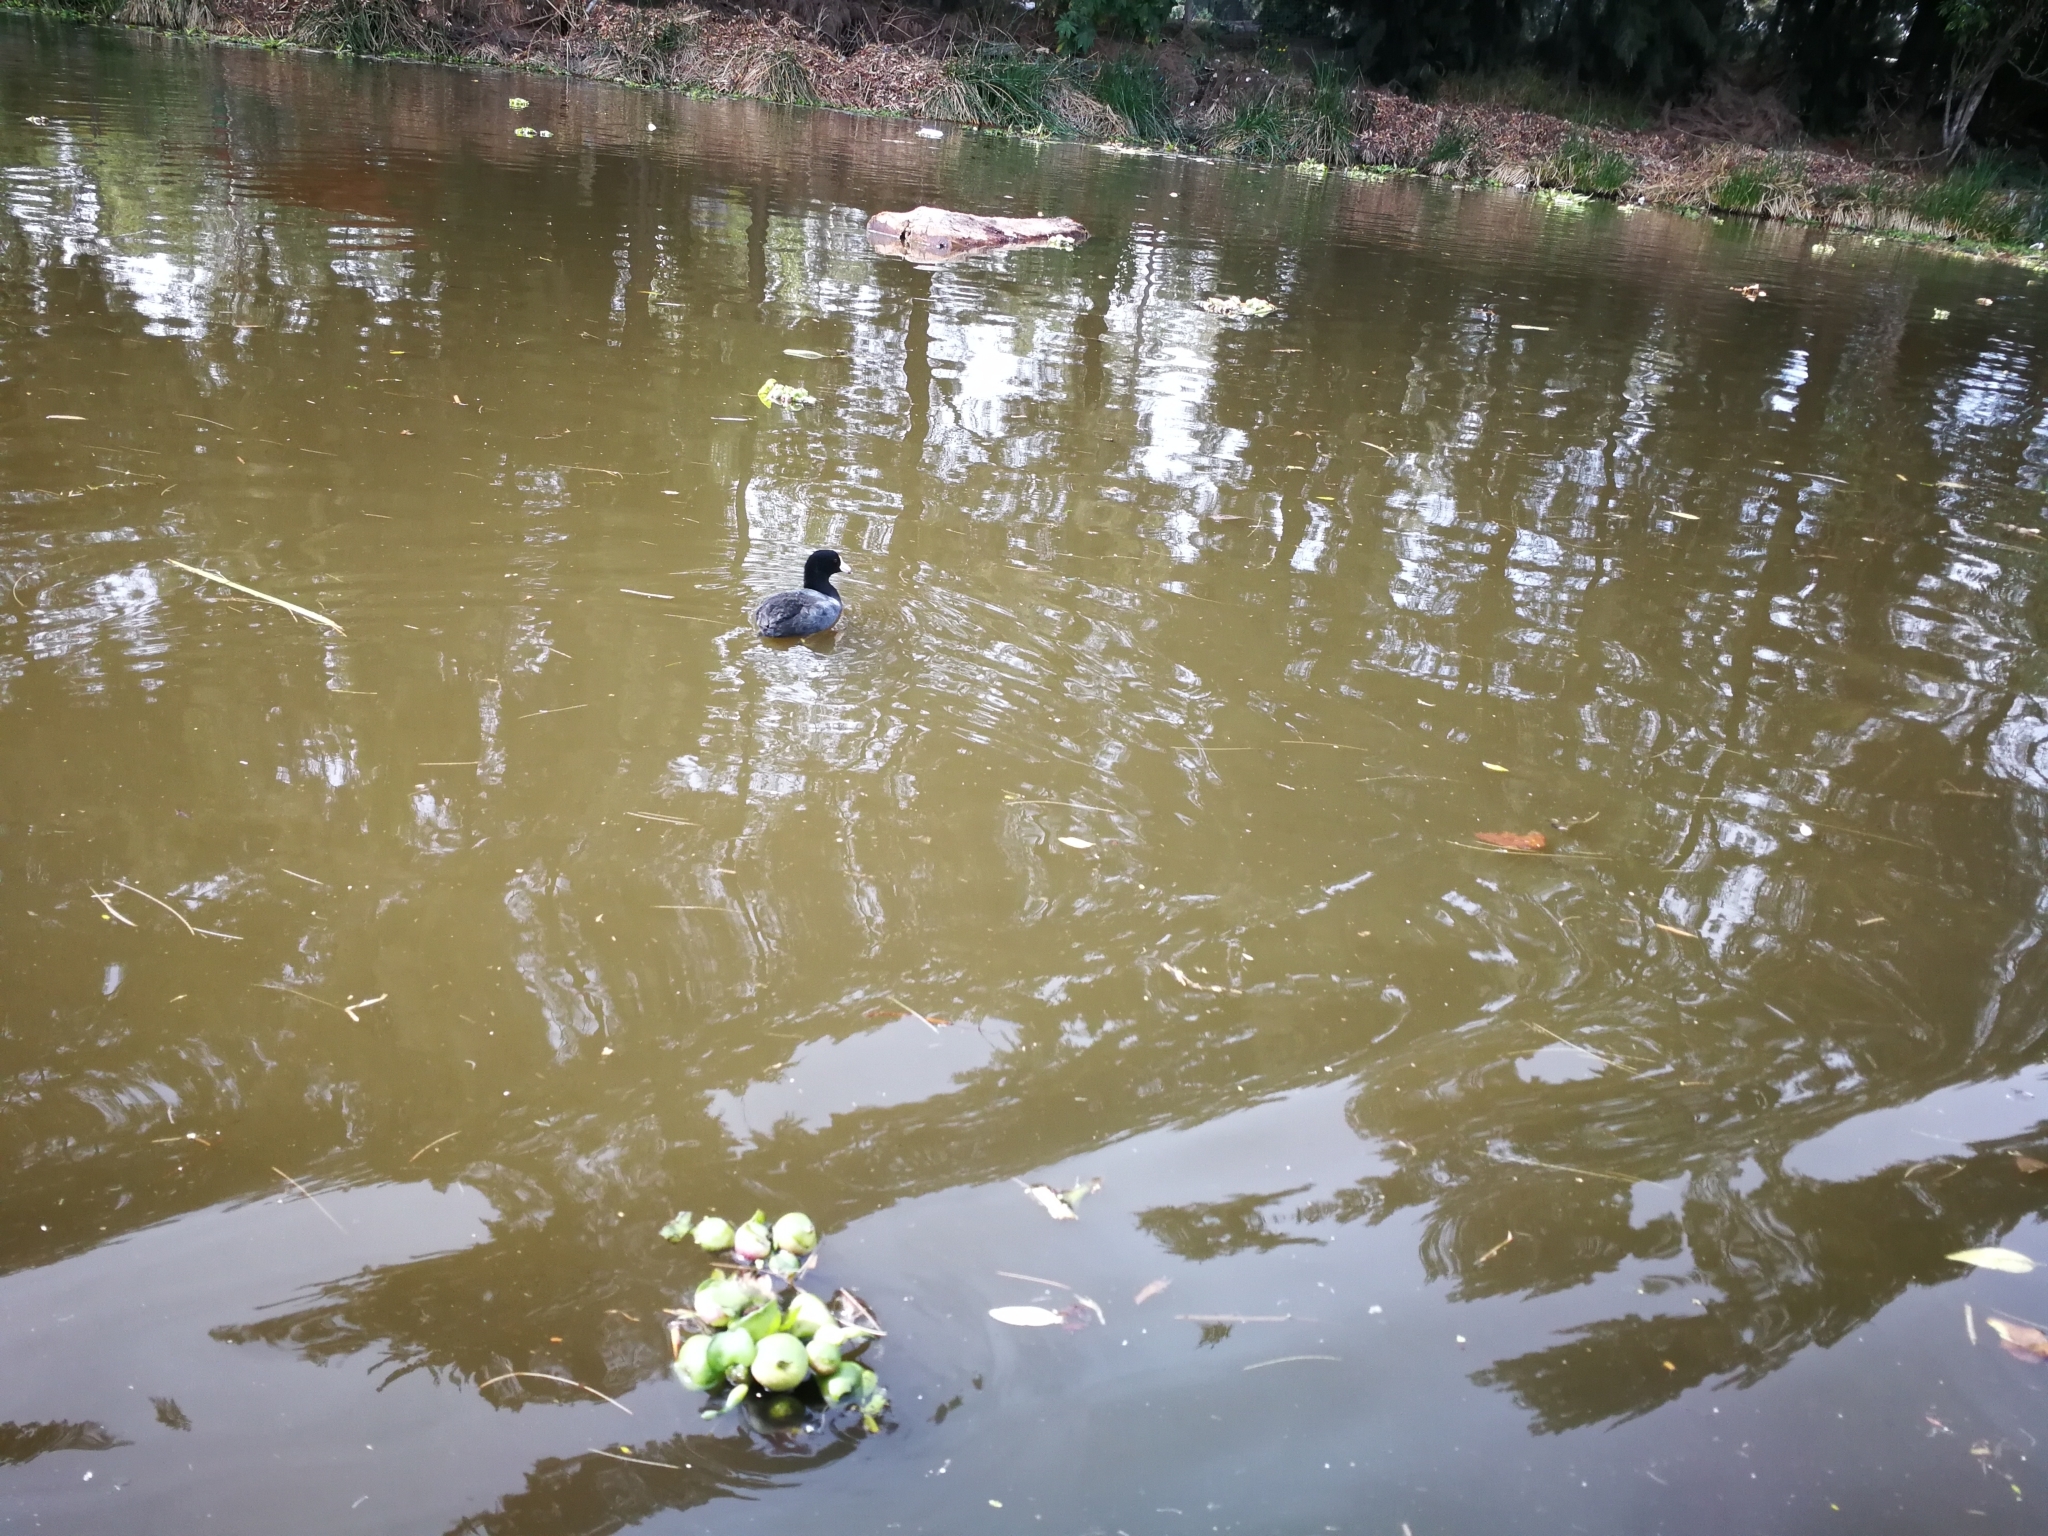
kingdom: Animalia
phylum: Chordata
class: Aves
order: Gruiformes
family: Rallidae
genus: Fulica
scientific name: Fulica americana
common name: American coot
